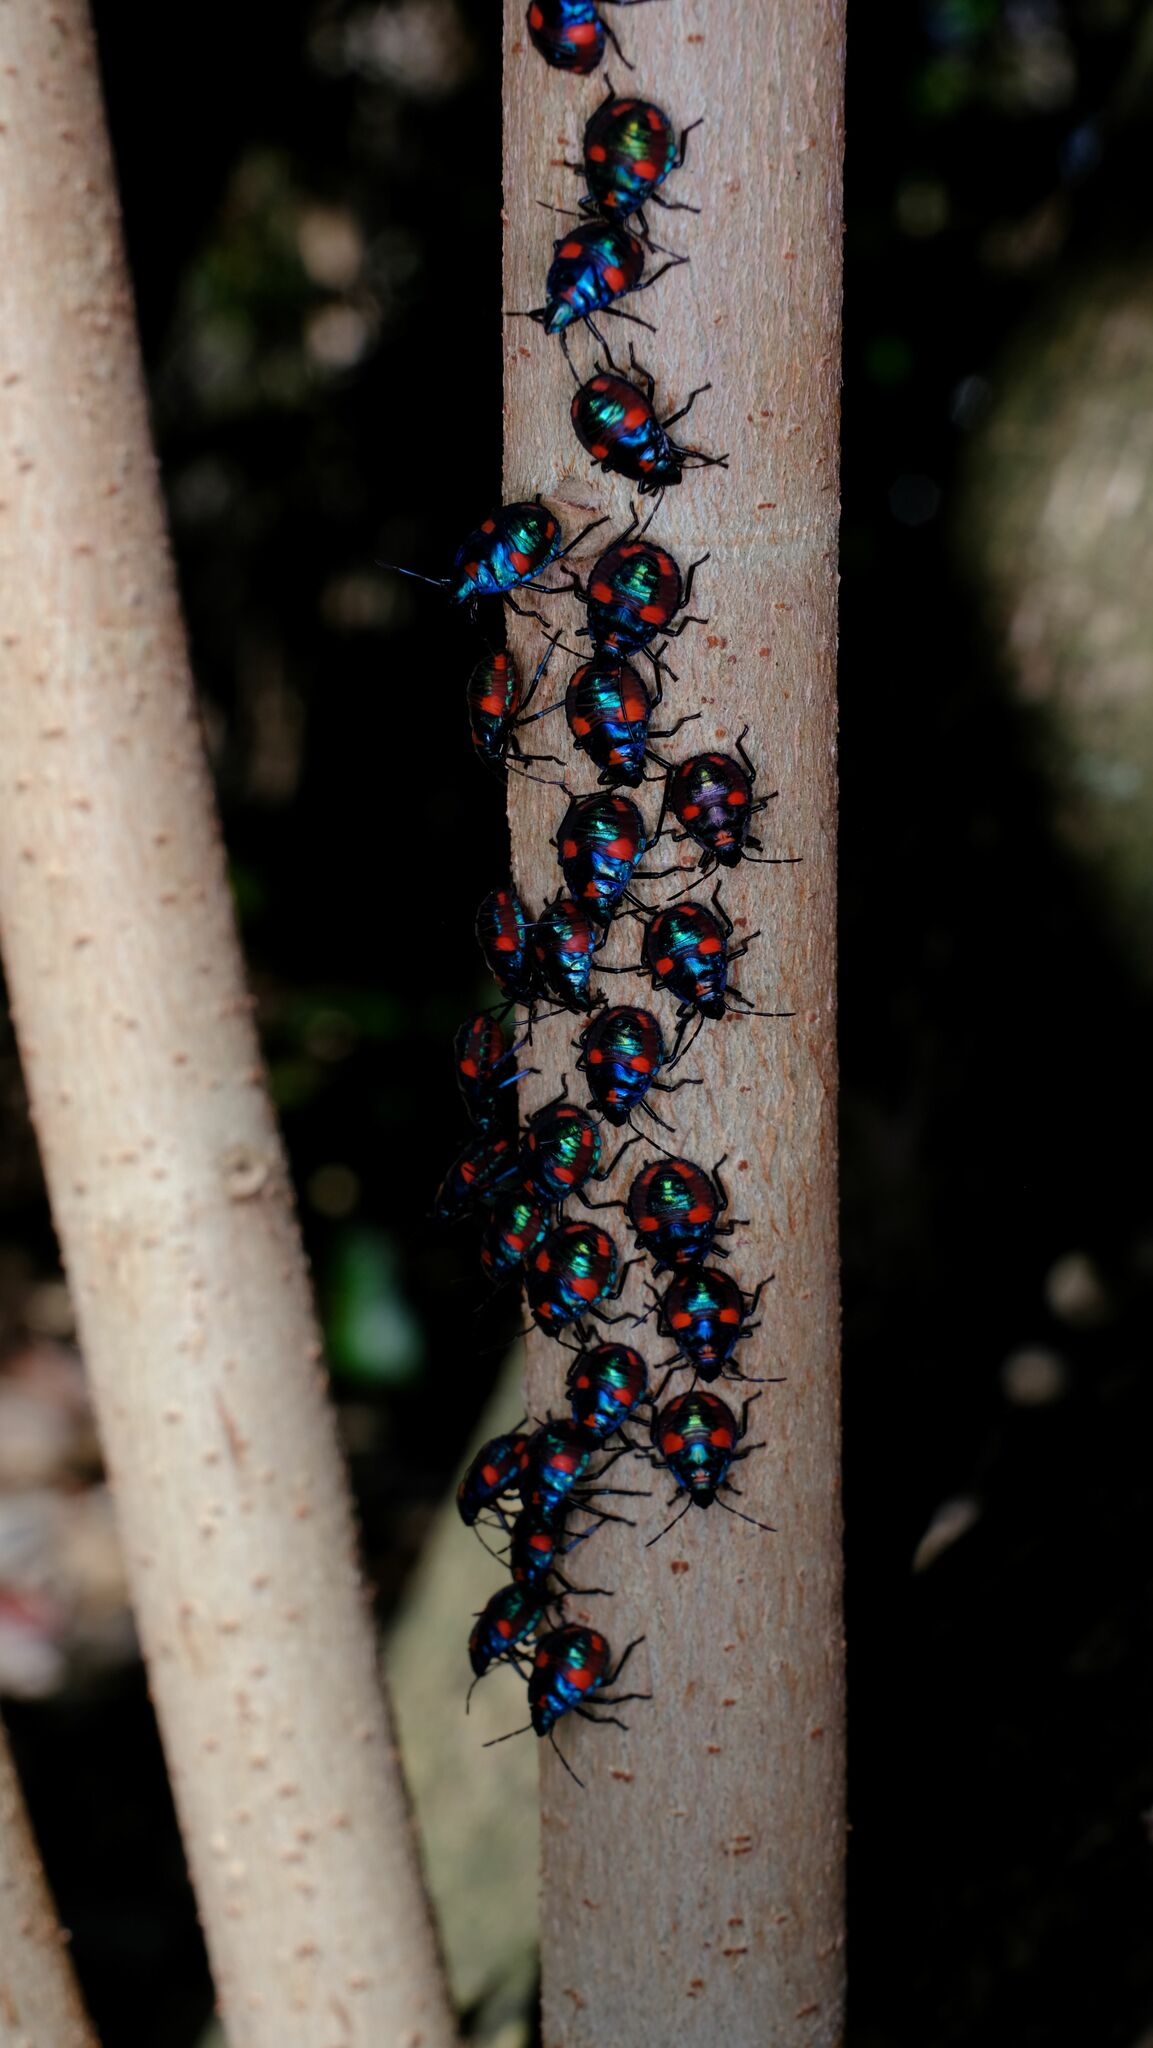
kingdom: Animalia
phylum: Arthropoda
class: Insecta
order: Hemiptera
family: Scutelleridae
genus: Tectocoris
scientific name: Tectocoris diophthalmus
